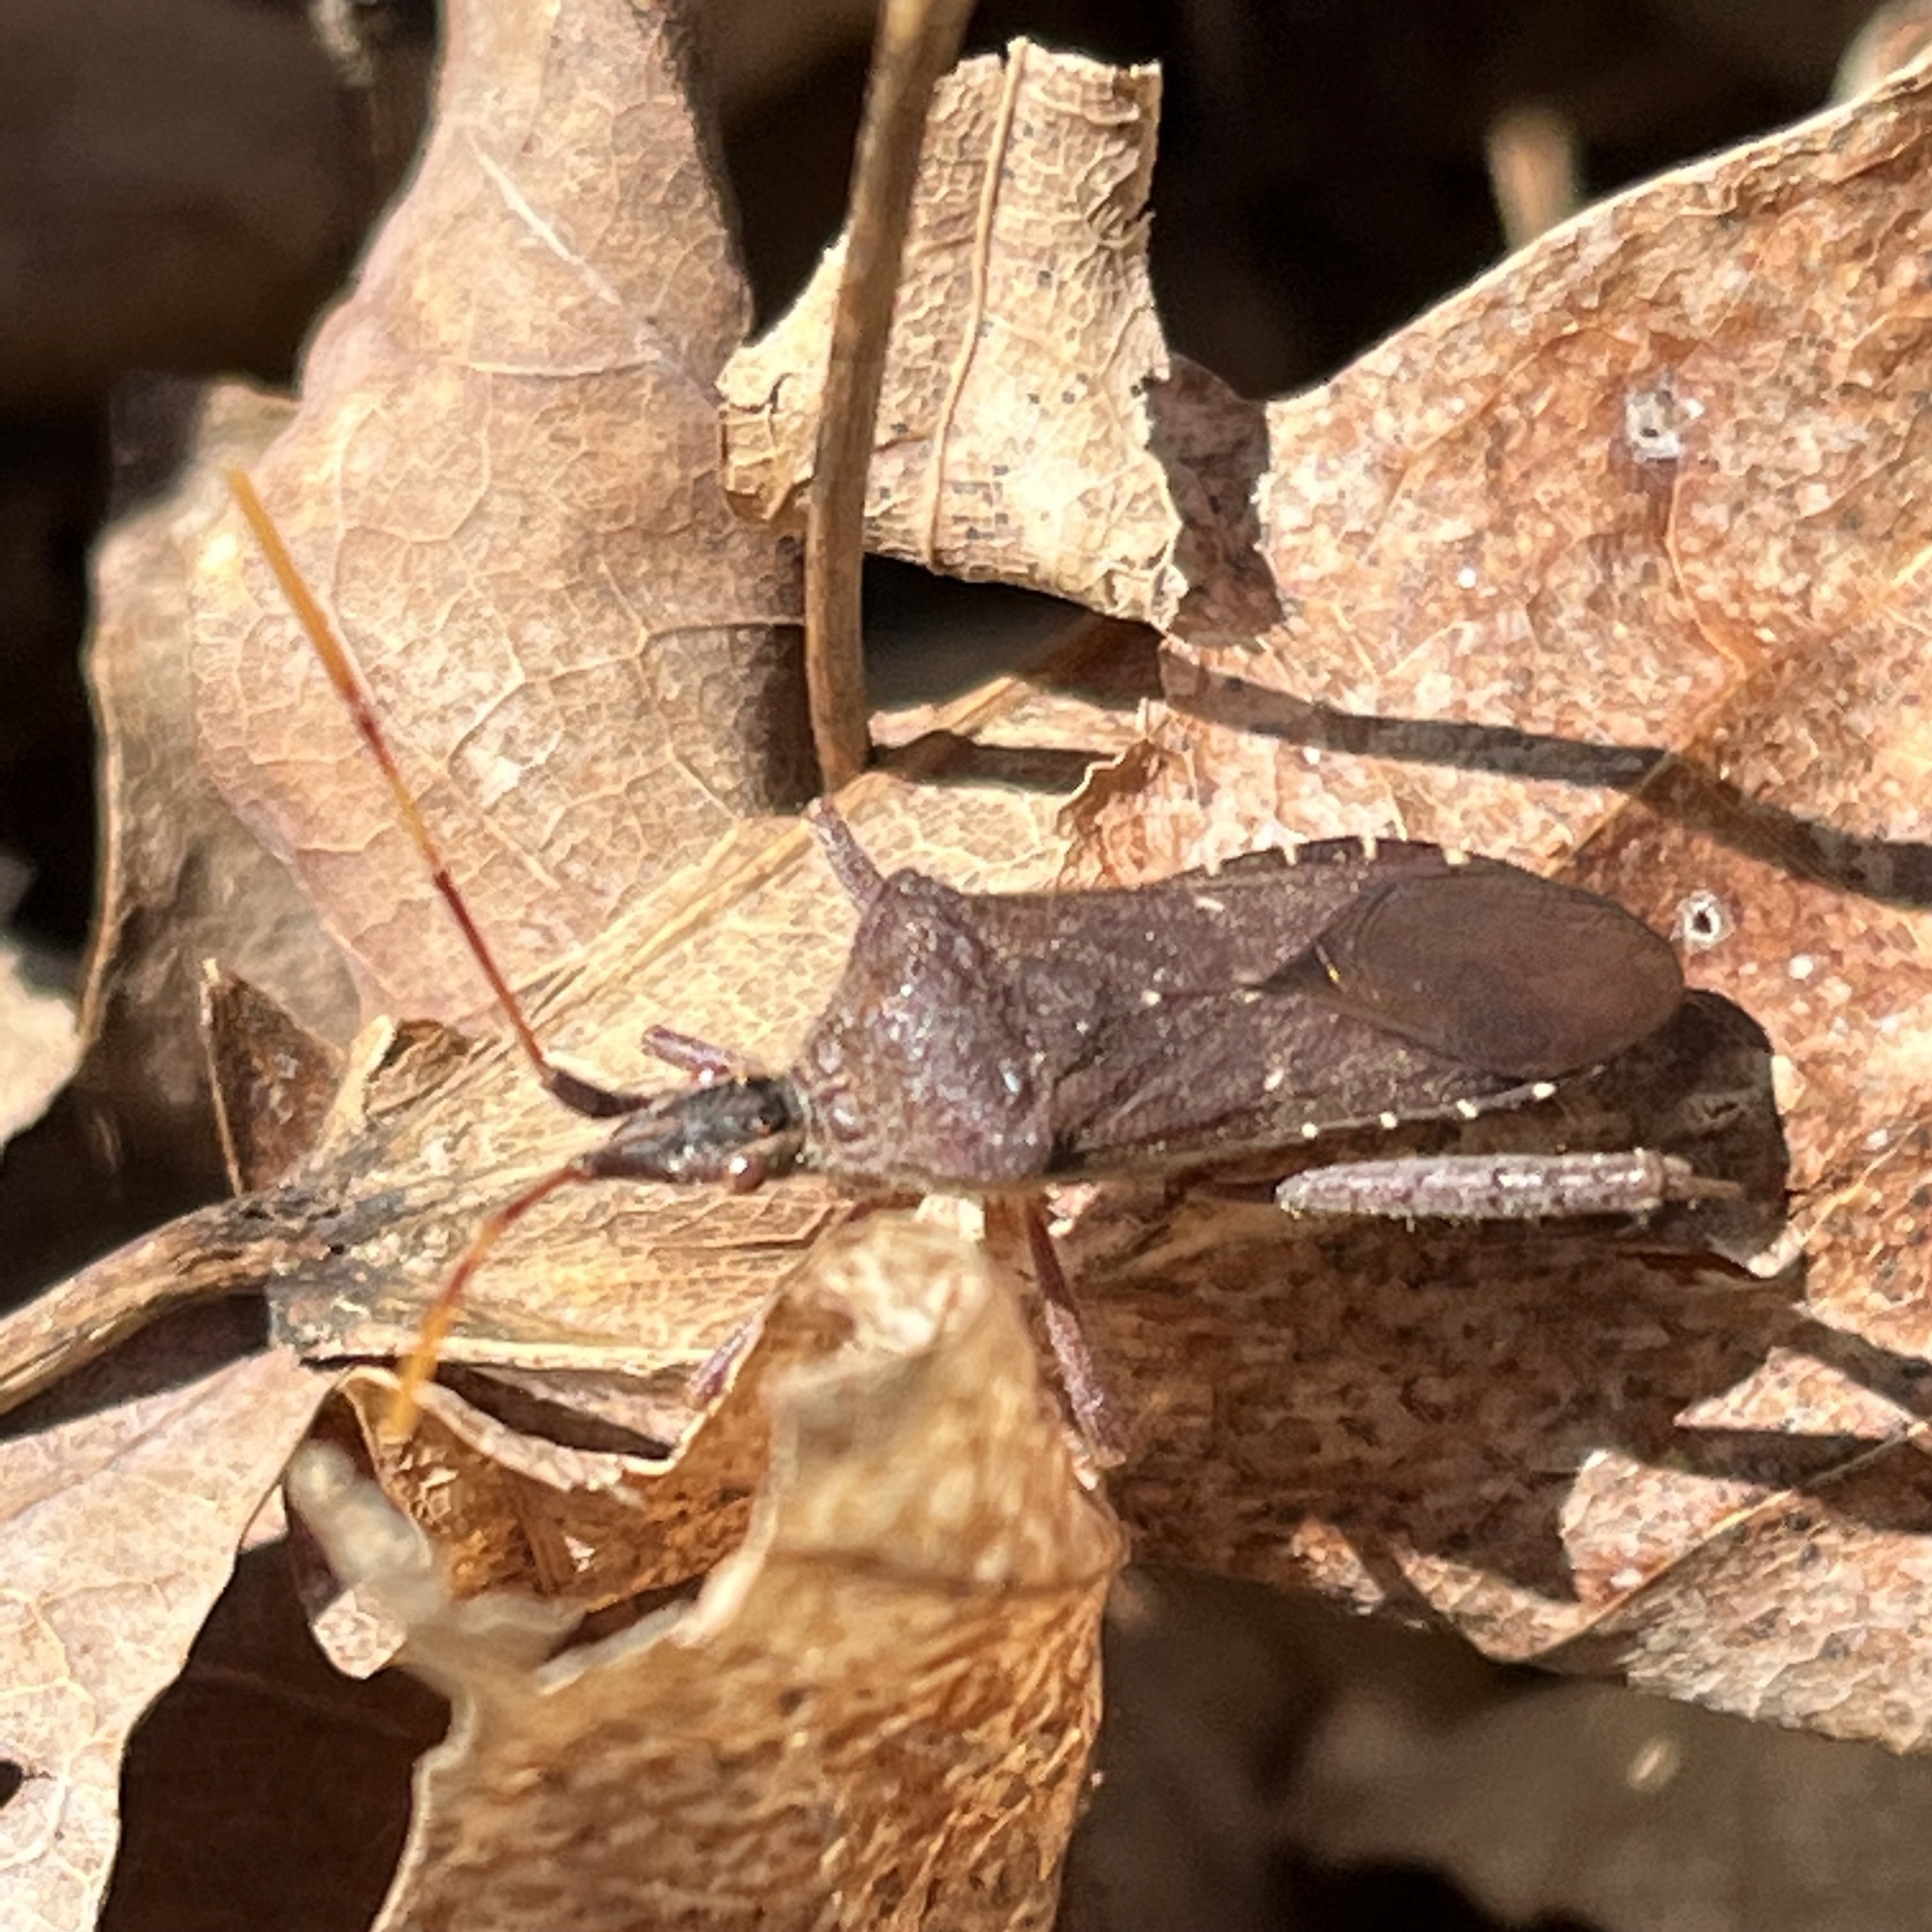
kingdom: Animalia
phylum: Arthropoda
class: Insecta
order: Hemiptera
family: Coreidae
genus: Leptoglossus
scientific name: Leptoglossus oppositus
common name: Northern leaf-footed bug
